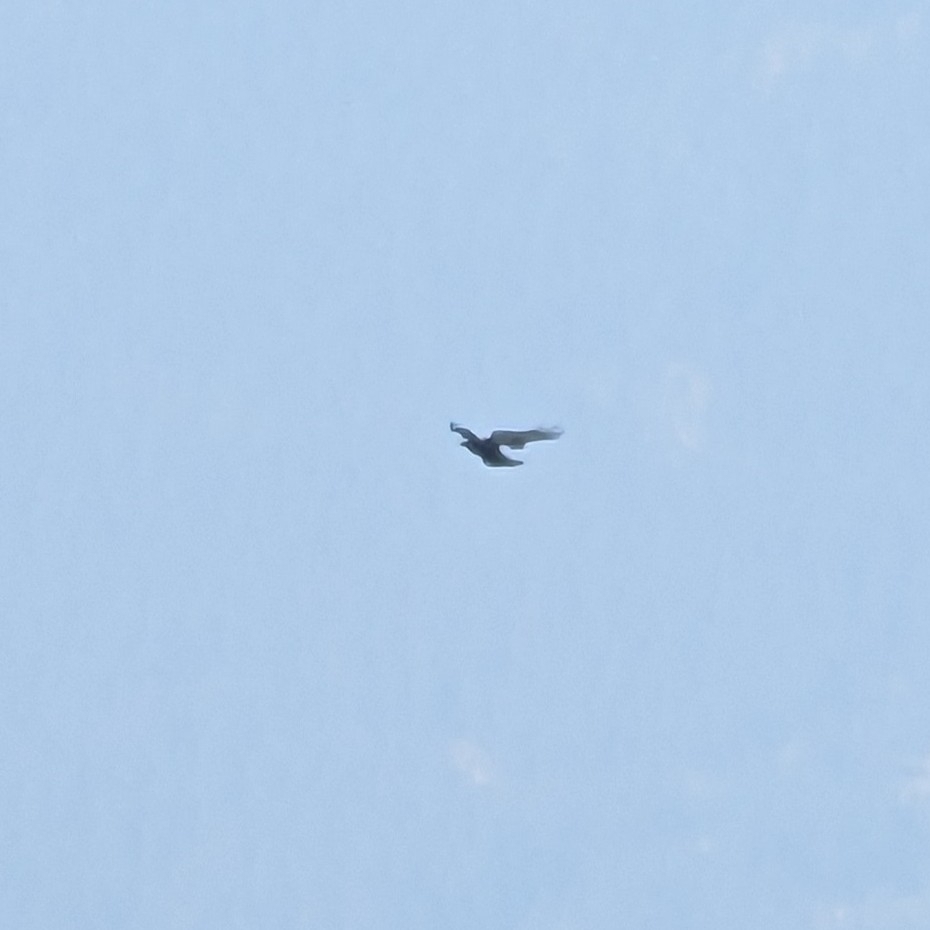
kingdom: Animalia
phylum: Chordata
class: Aves
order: Passeriformes
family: Corvidae
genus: Corvus
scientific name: Corvus corax
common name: Common raven
